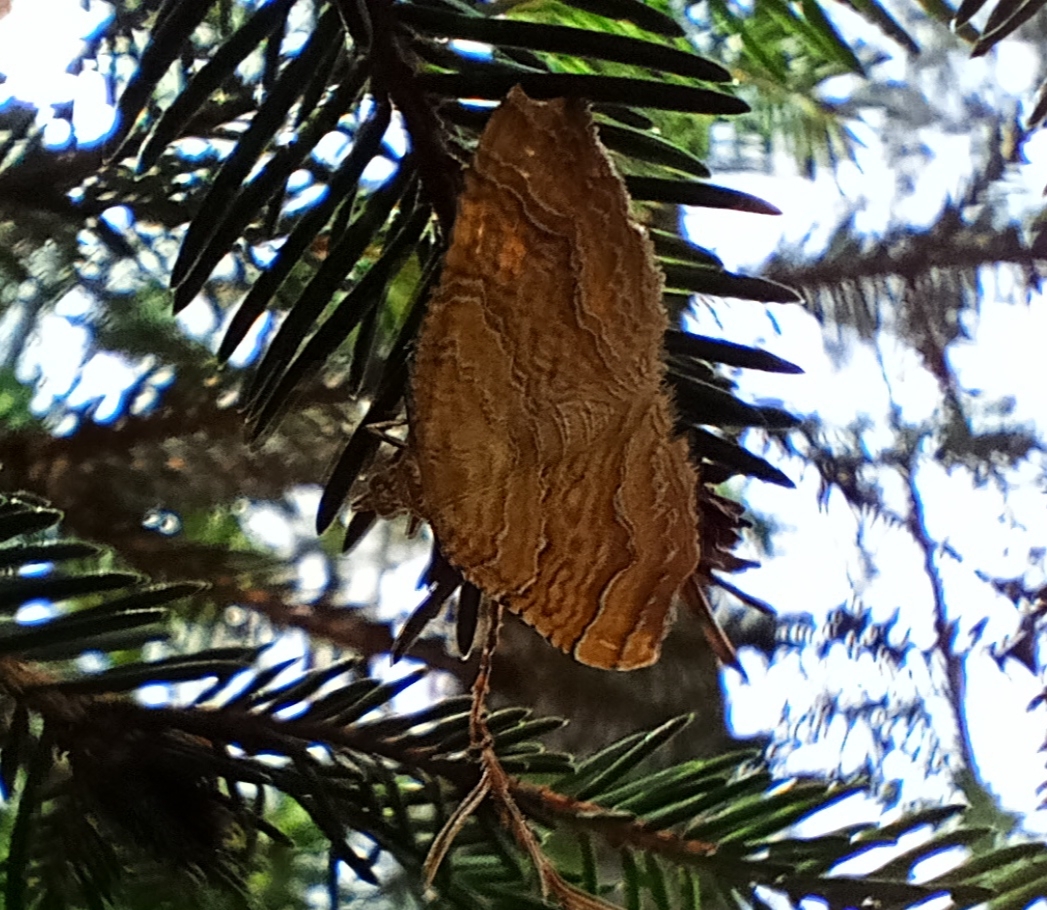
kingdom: Animalia
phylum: Arthropoda
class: Insecta
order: Lepidoptera
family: Geometridae
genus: Camptogramma
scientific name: Camptogramma bilineata
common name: Yellow shell
